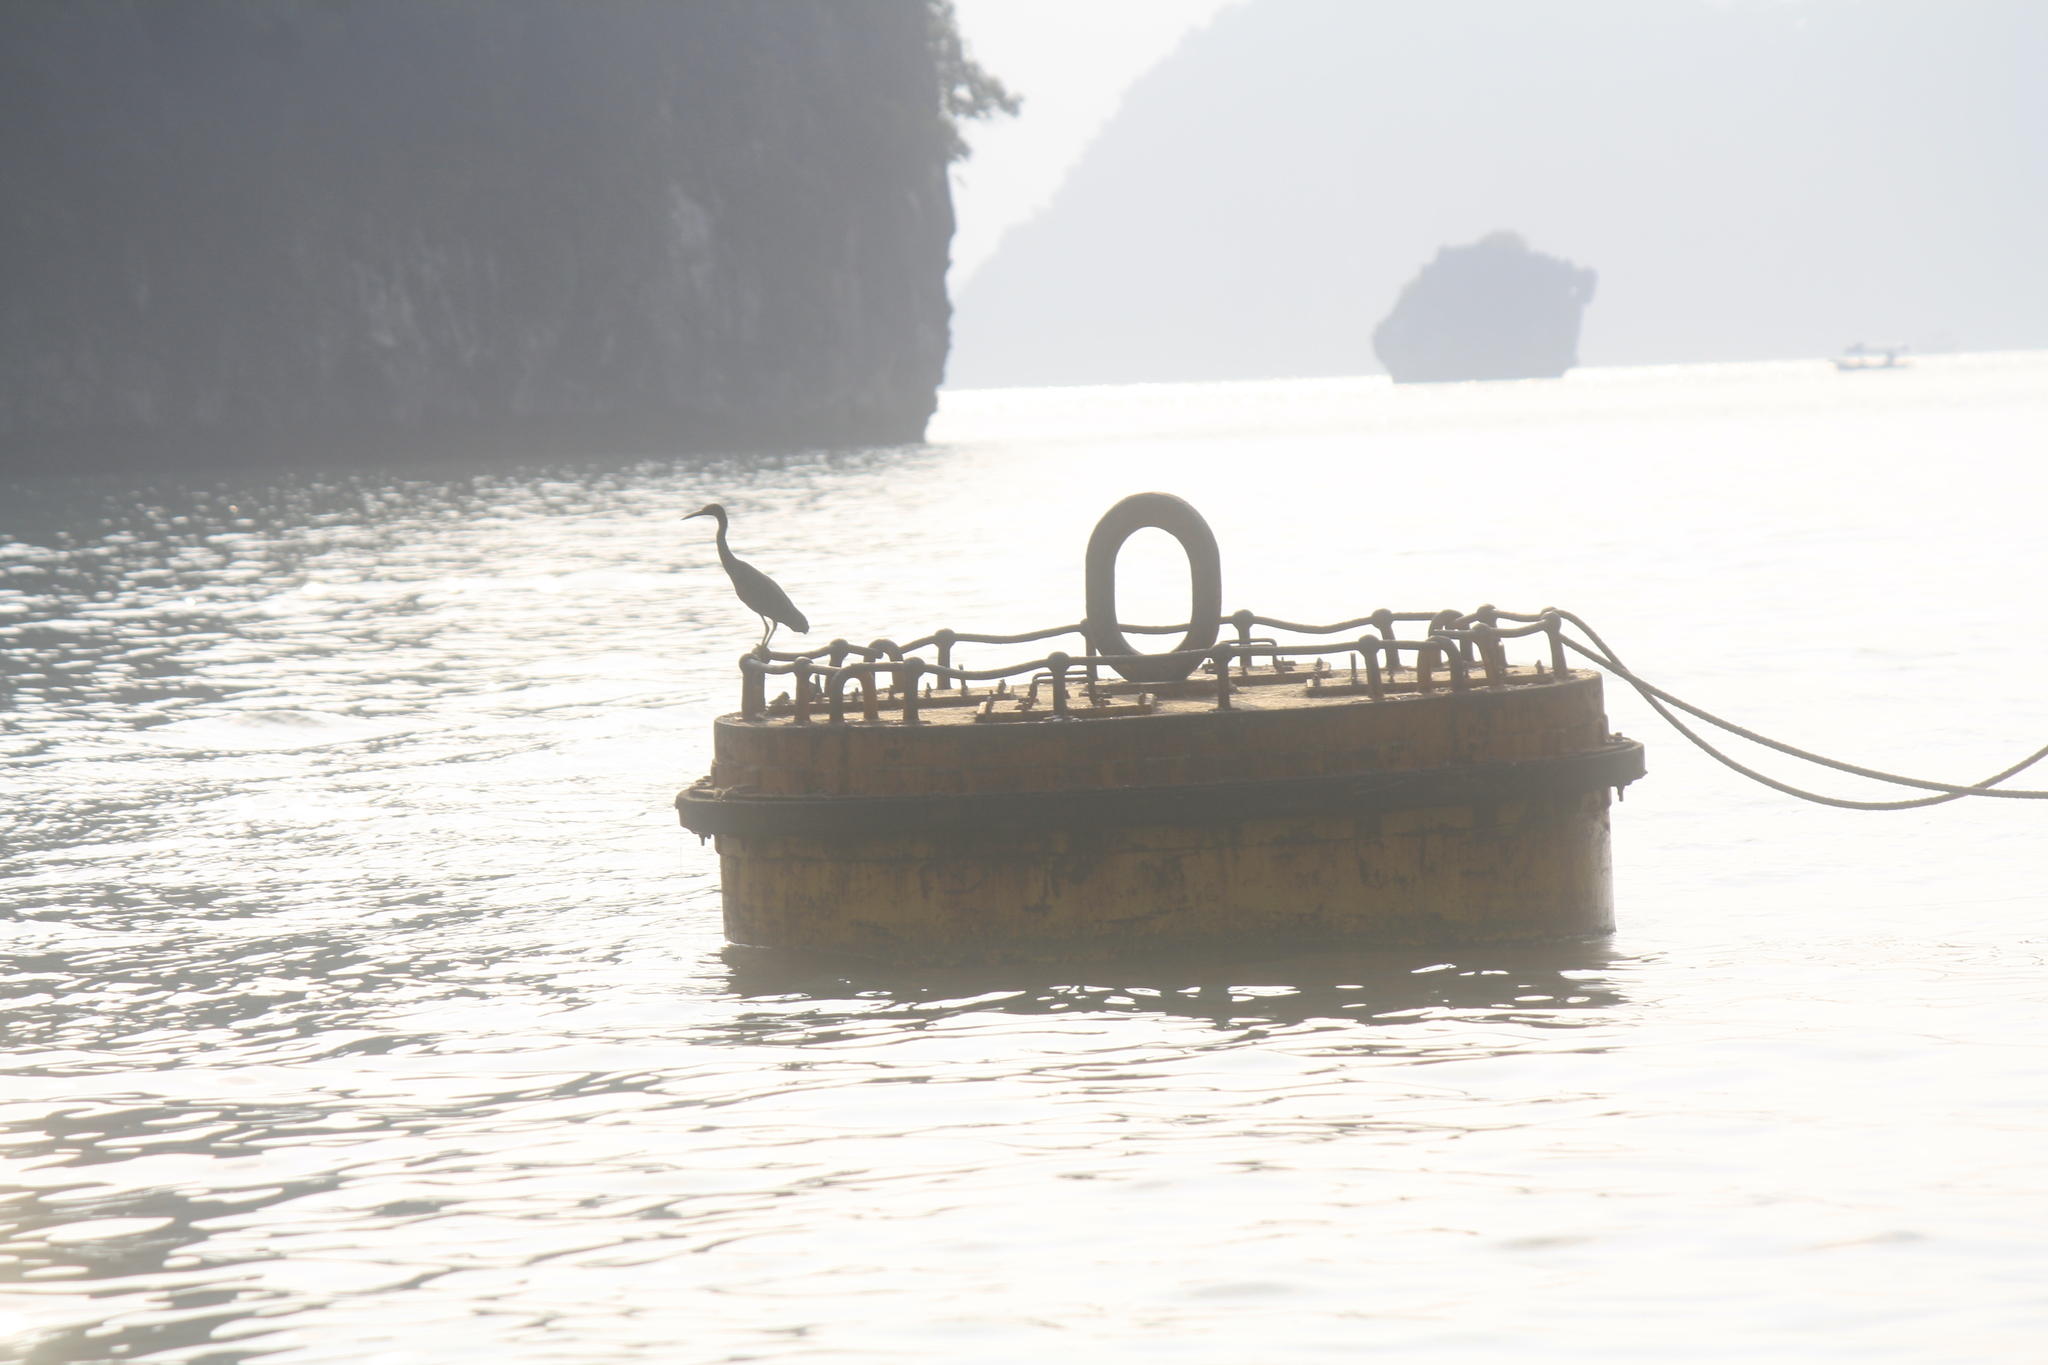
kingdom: Animalia
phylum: Chordata
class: Aves
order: Pelecaniformes
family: Ardeidae
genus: Egretta
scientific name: Egretta sacra
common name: Pacific reef heron
